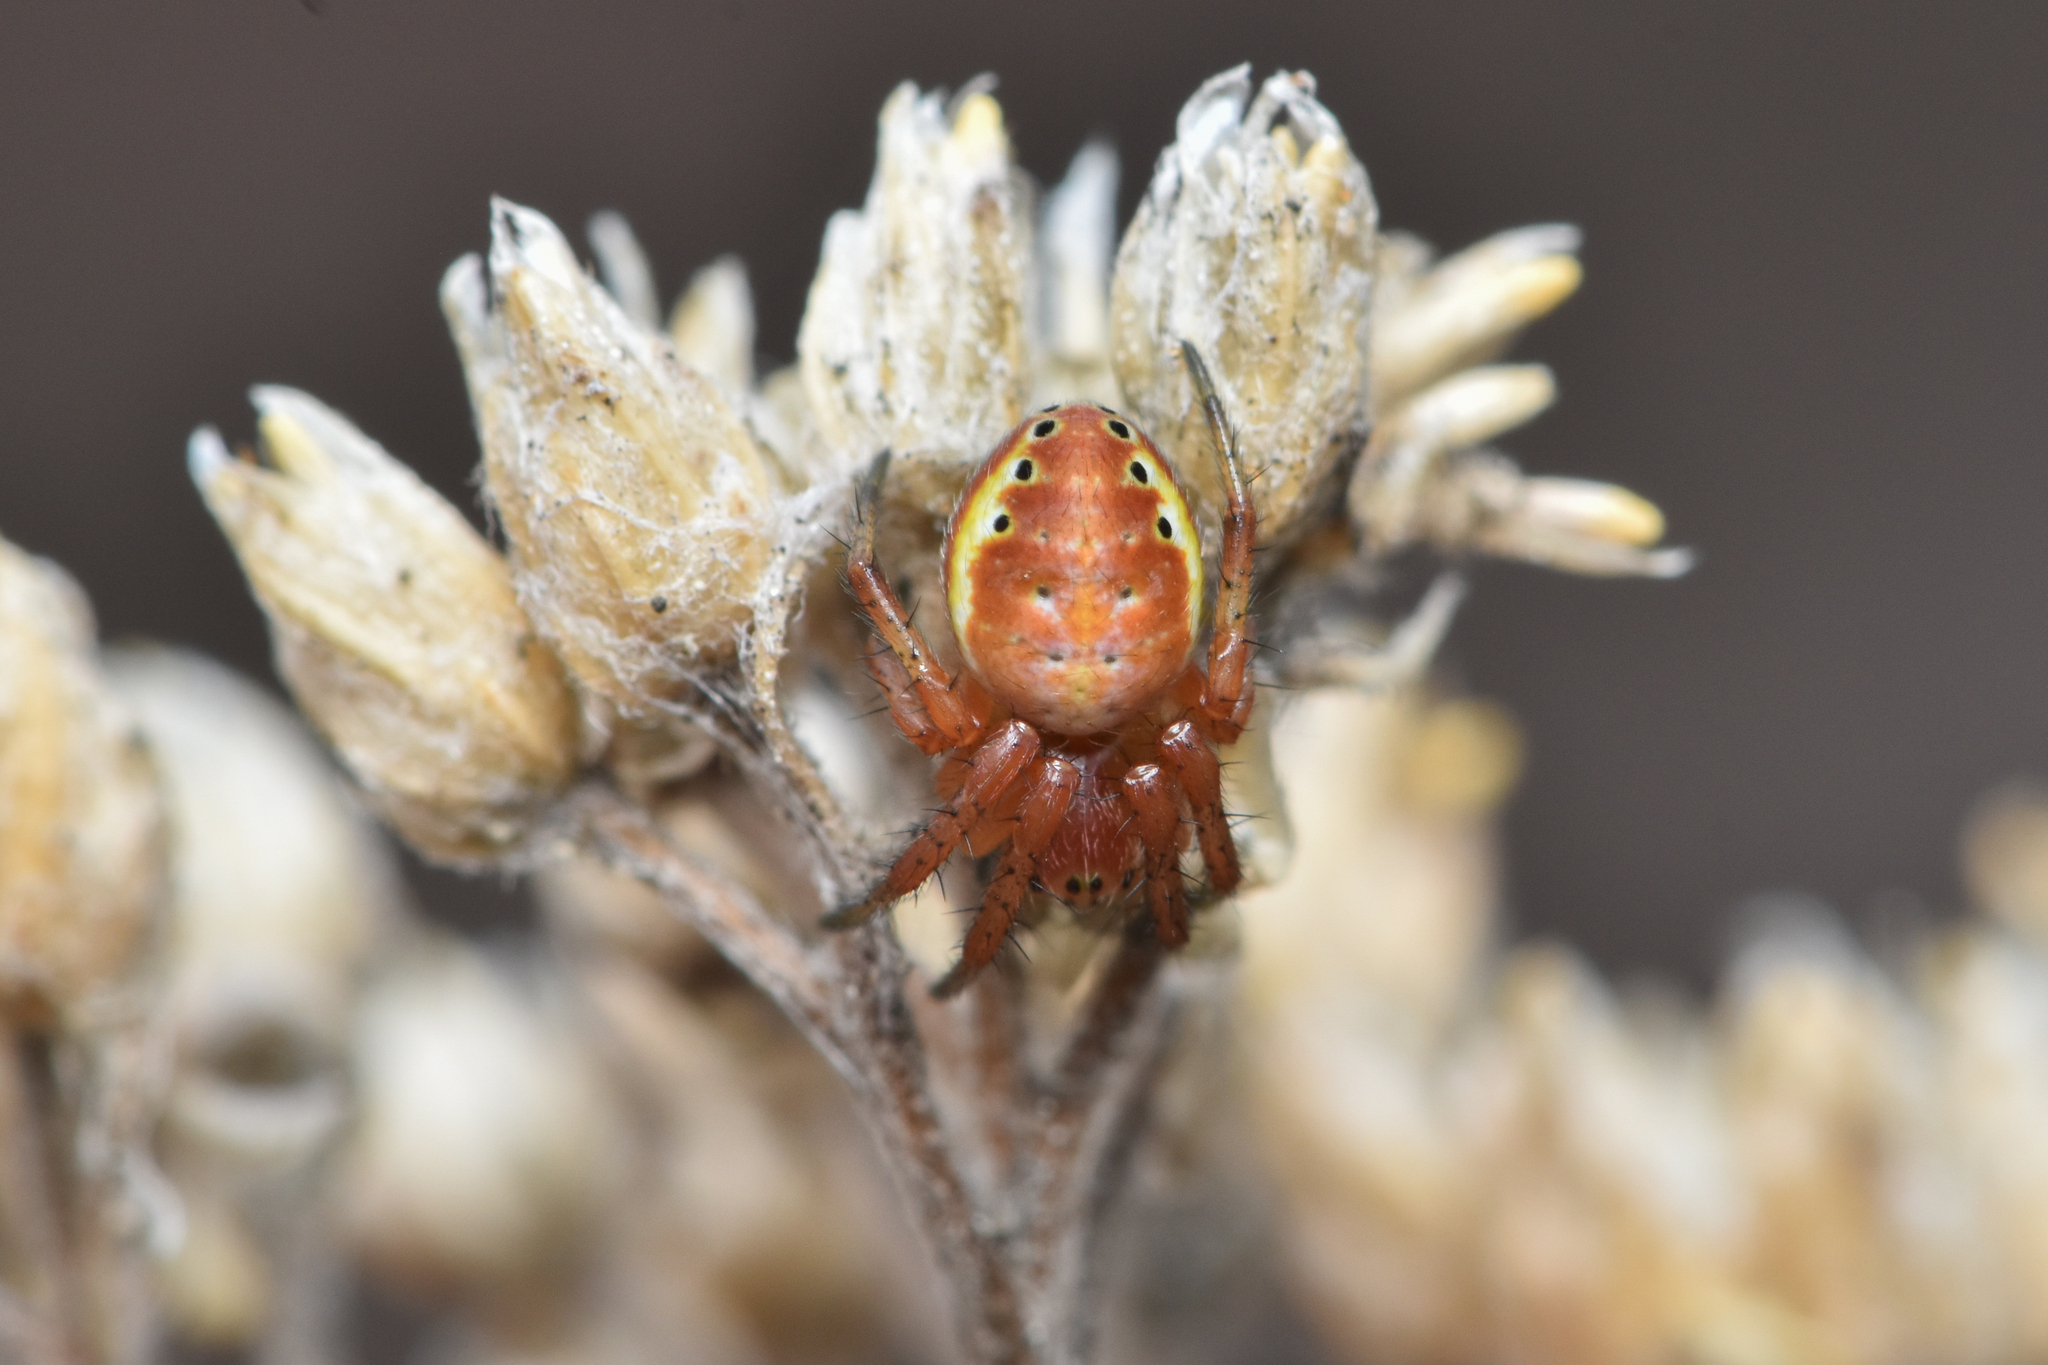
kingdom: Animalia
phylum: Arthropoda
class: Arachnida
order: Araneae
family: Araneidae
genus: Araniella
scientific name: Araniella displicata
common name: Sixspotted orb weaver
